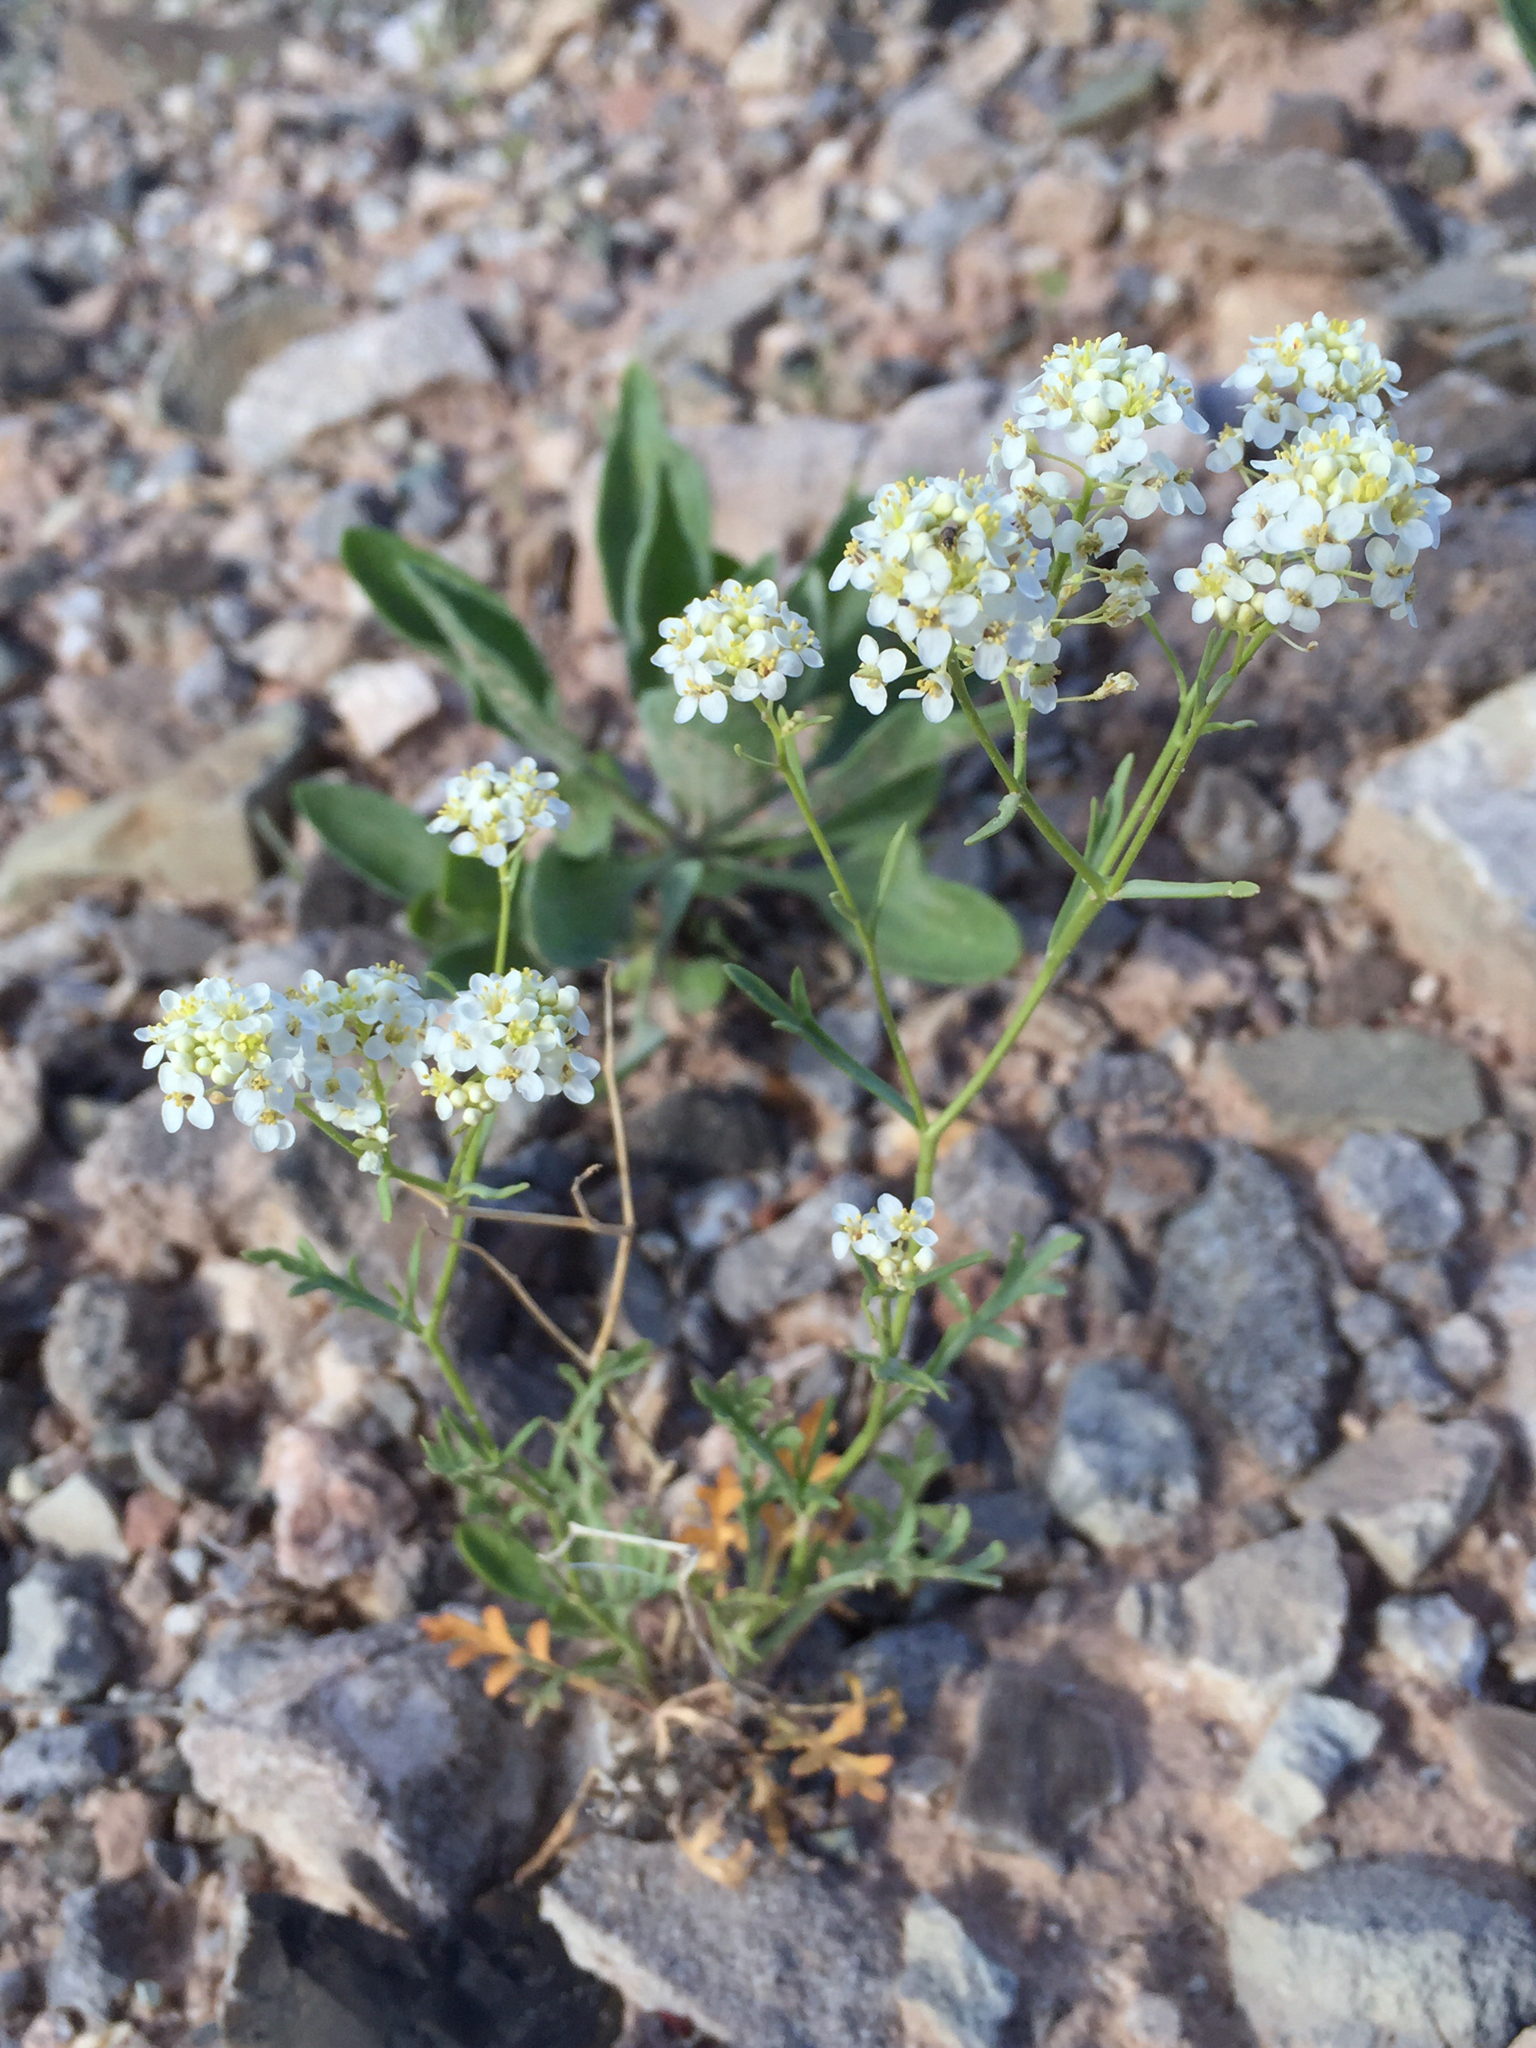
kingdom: Plantae
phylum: Tracheophyta
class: Magnoliopsida
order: Brassicales
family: Brassicaceae
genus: Lepidium
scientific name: Lepidium montanum
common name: Mountain pepperplant
